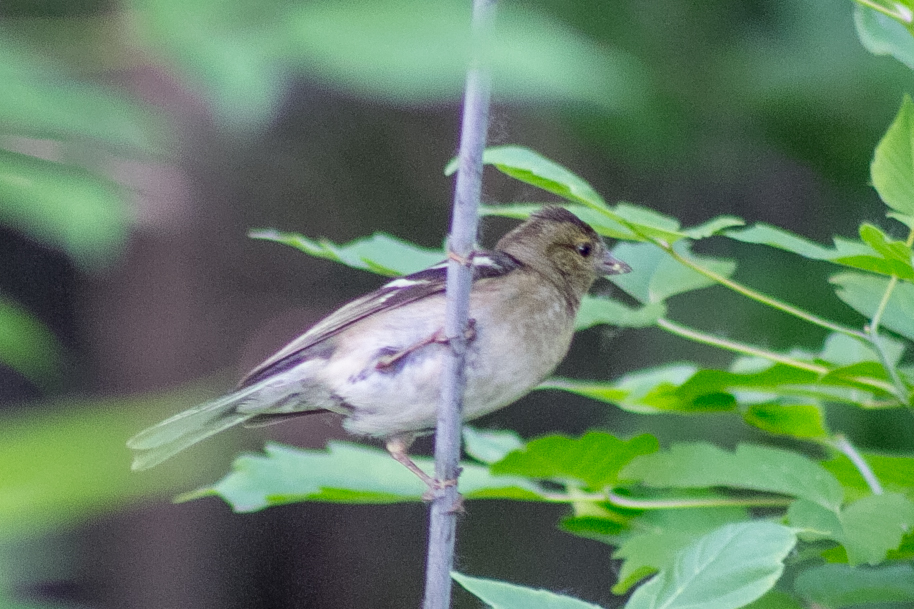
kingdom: Animalia
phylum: Chordata
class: Aves
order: Passeriformes
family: Fringillidae
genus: Fringilla
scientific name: Fringilla coelebs
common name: Common chaffinch
